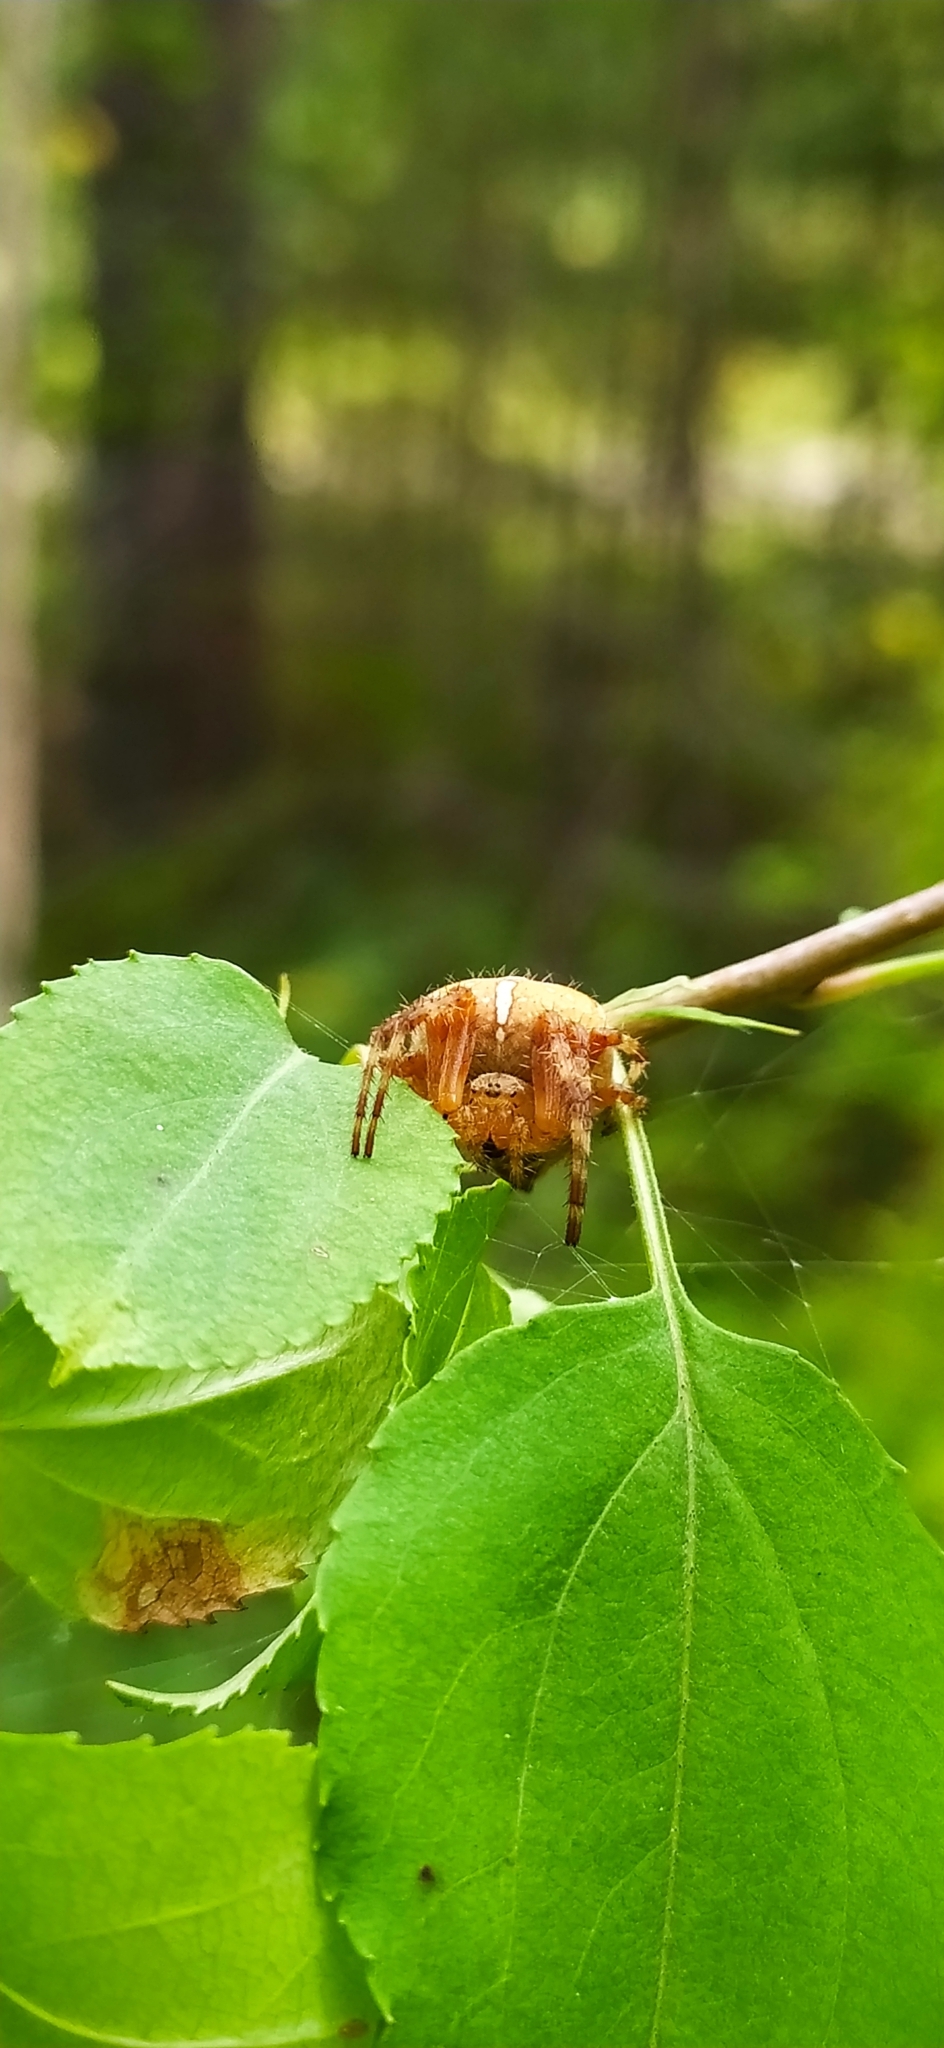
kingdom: Animalia
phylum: Arthropoda
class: Arachnida
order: Araneae
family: Araneidae
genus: Araneus
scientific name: Araneus diadematus
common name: Cross orbweaver
